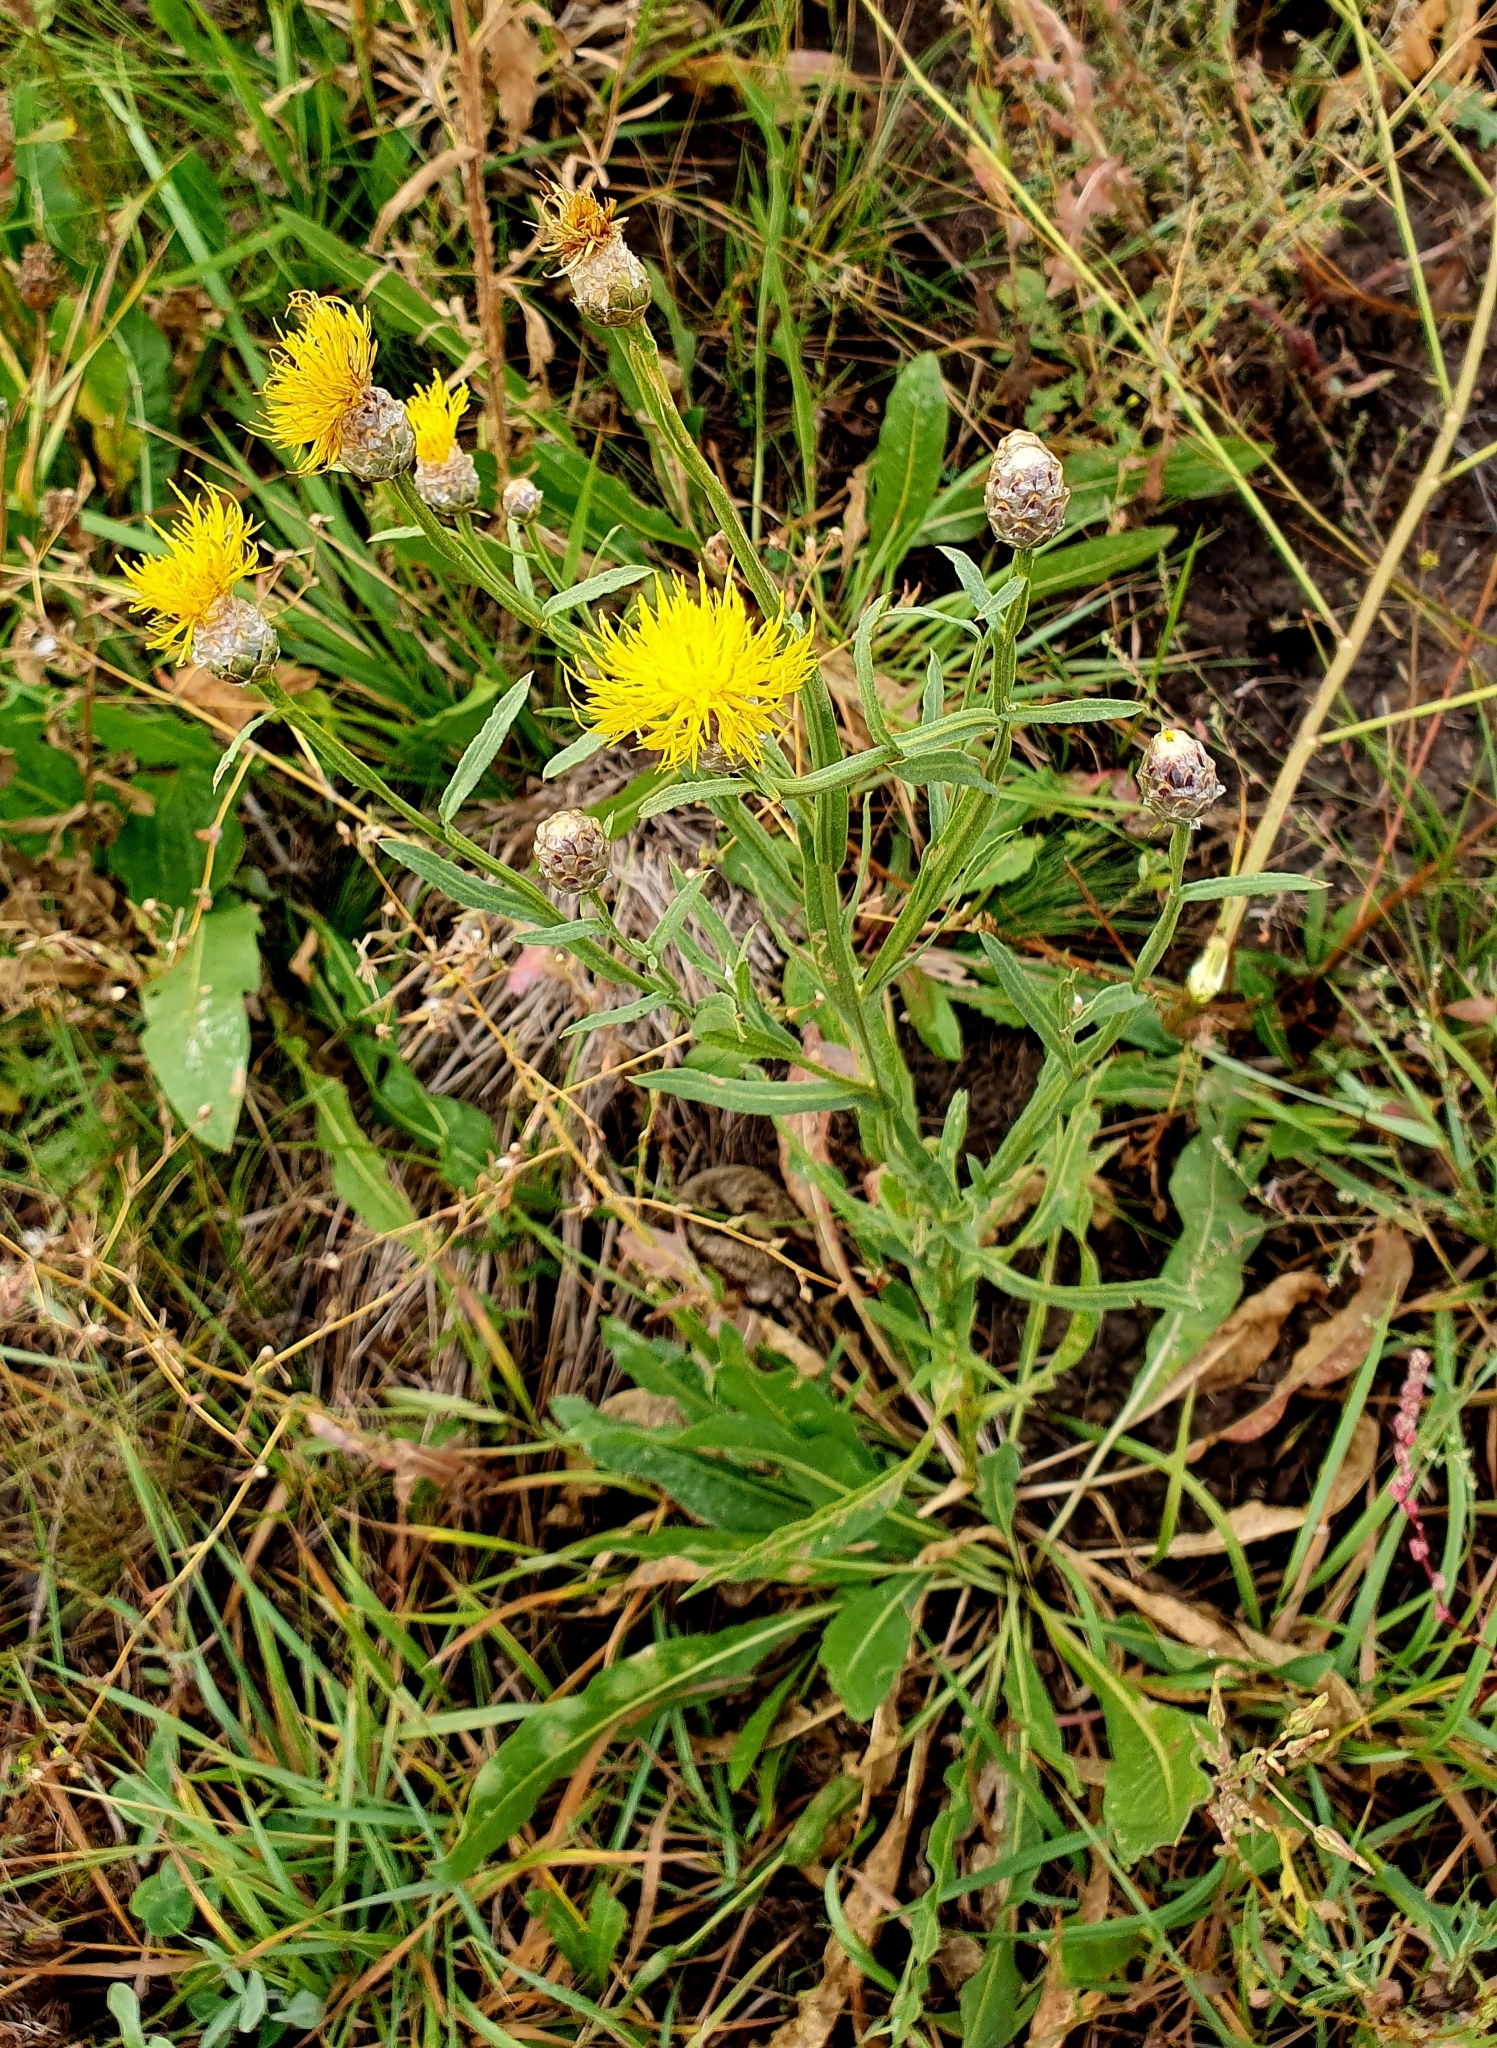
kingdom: Plantae
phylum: Tracheophyta
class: Magnoliopsida
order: Asterales
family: Asteraceae
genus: Centaurea
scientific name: Centaurea glastifolia
